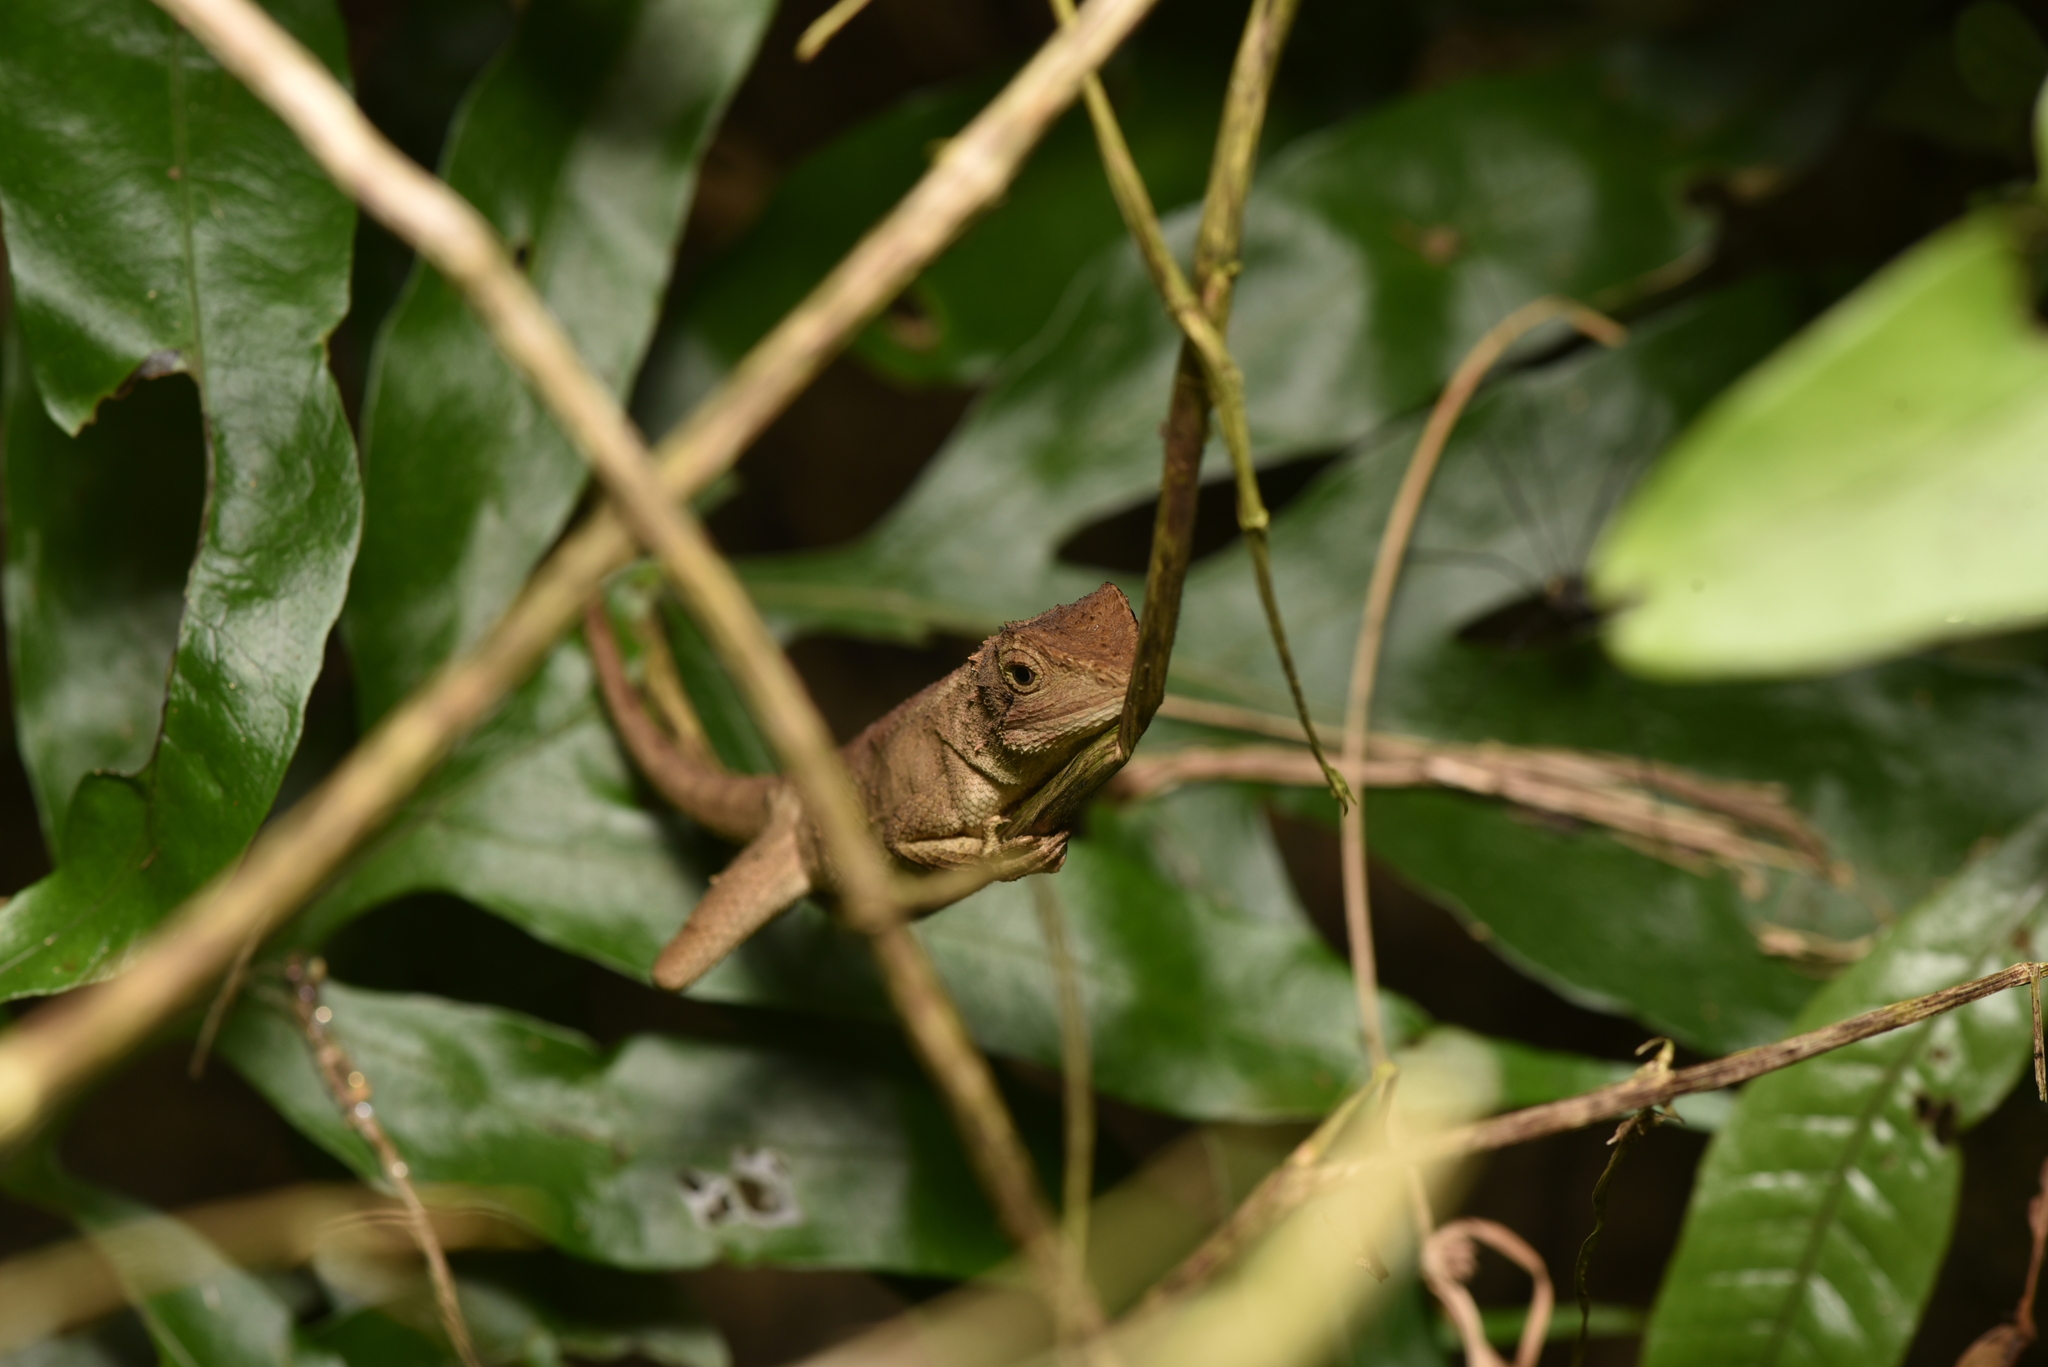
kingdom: Animalia
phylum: Chordata
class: Squamata
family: Agamidae
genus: Diploderma
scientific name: Diploderma swinhonis
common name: Taiwan japalure
